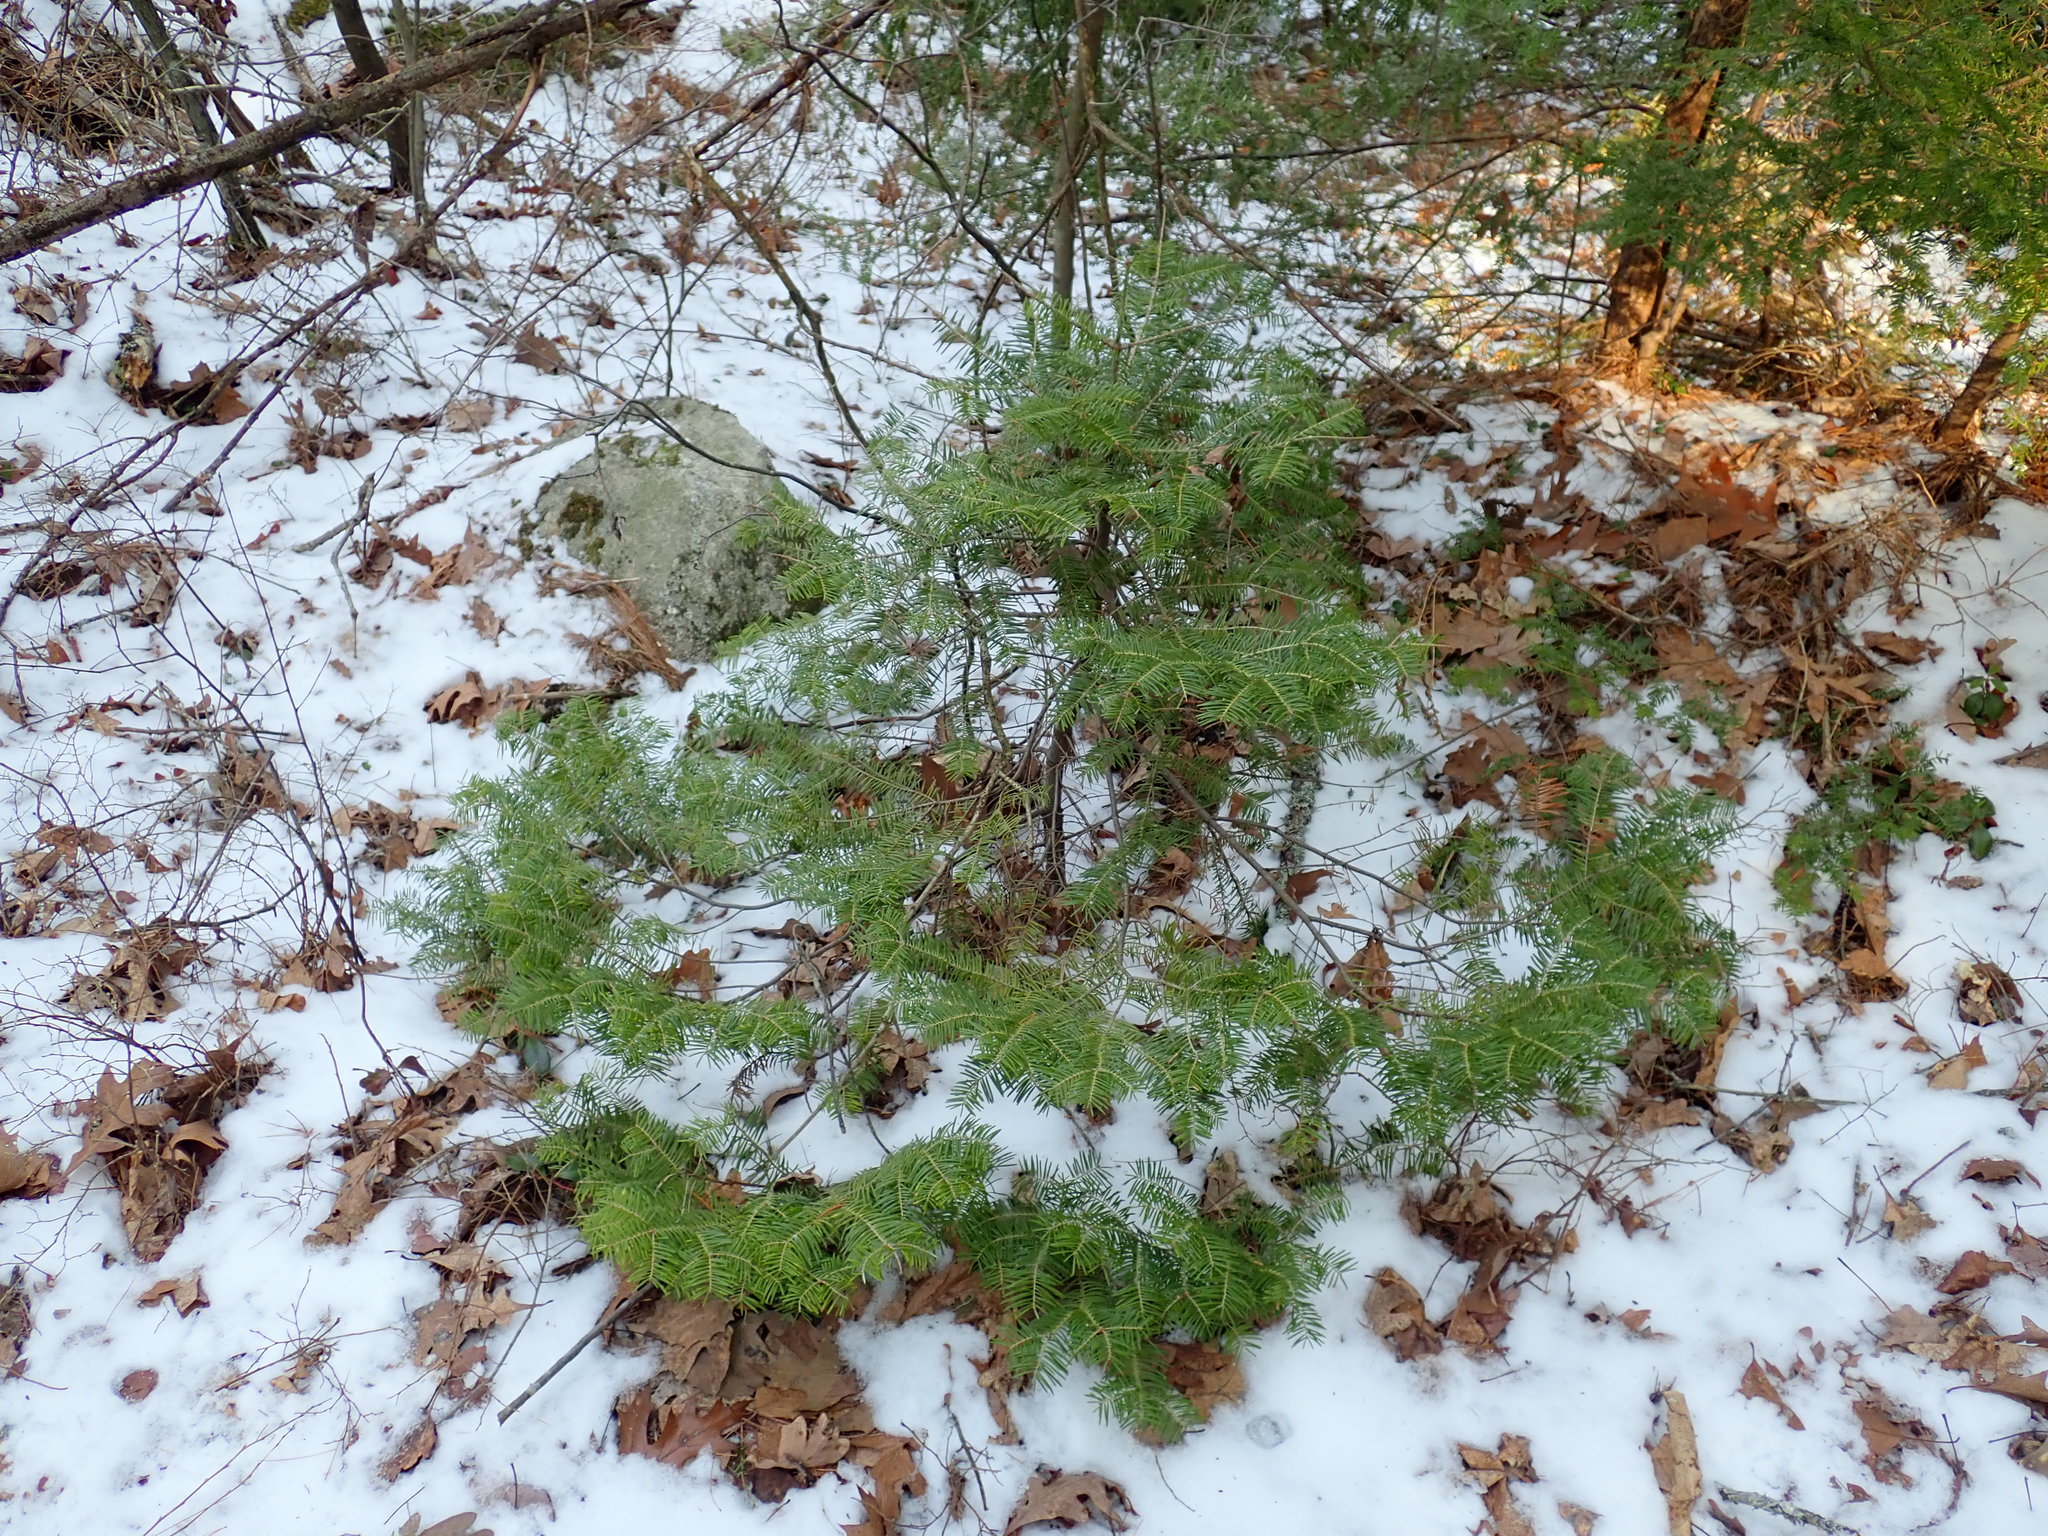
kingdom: Plantae
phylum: Tracheophyta
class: Pinopsida
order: Pinales
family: Pinaceae
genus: Abies
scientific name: Abies balsamea
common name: Balsam fir
